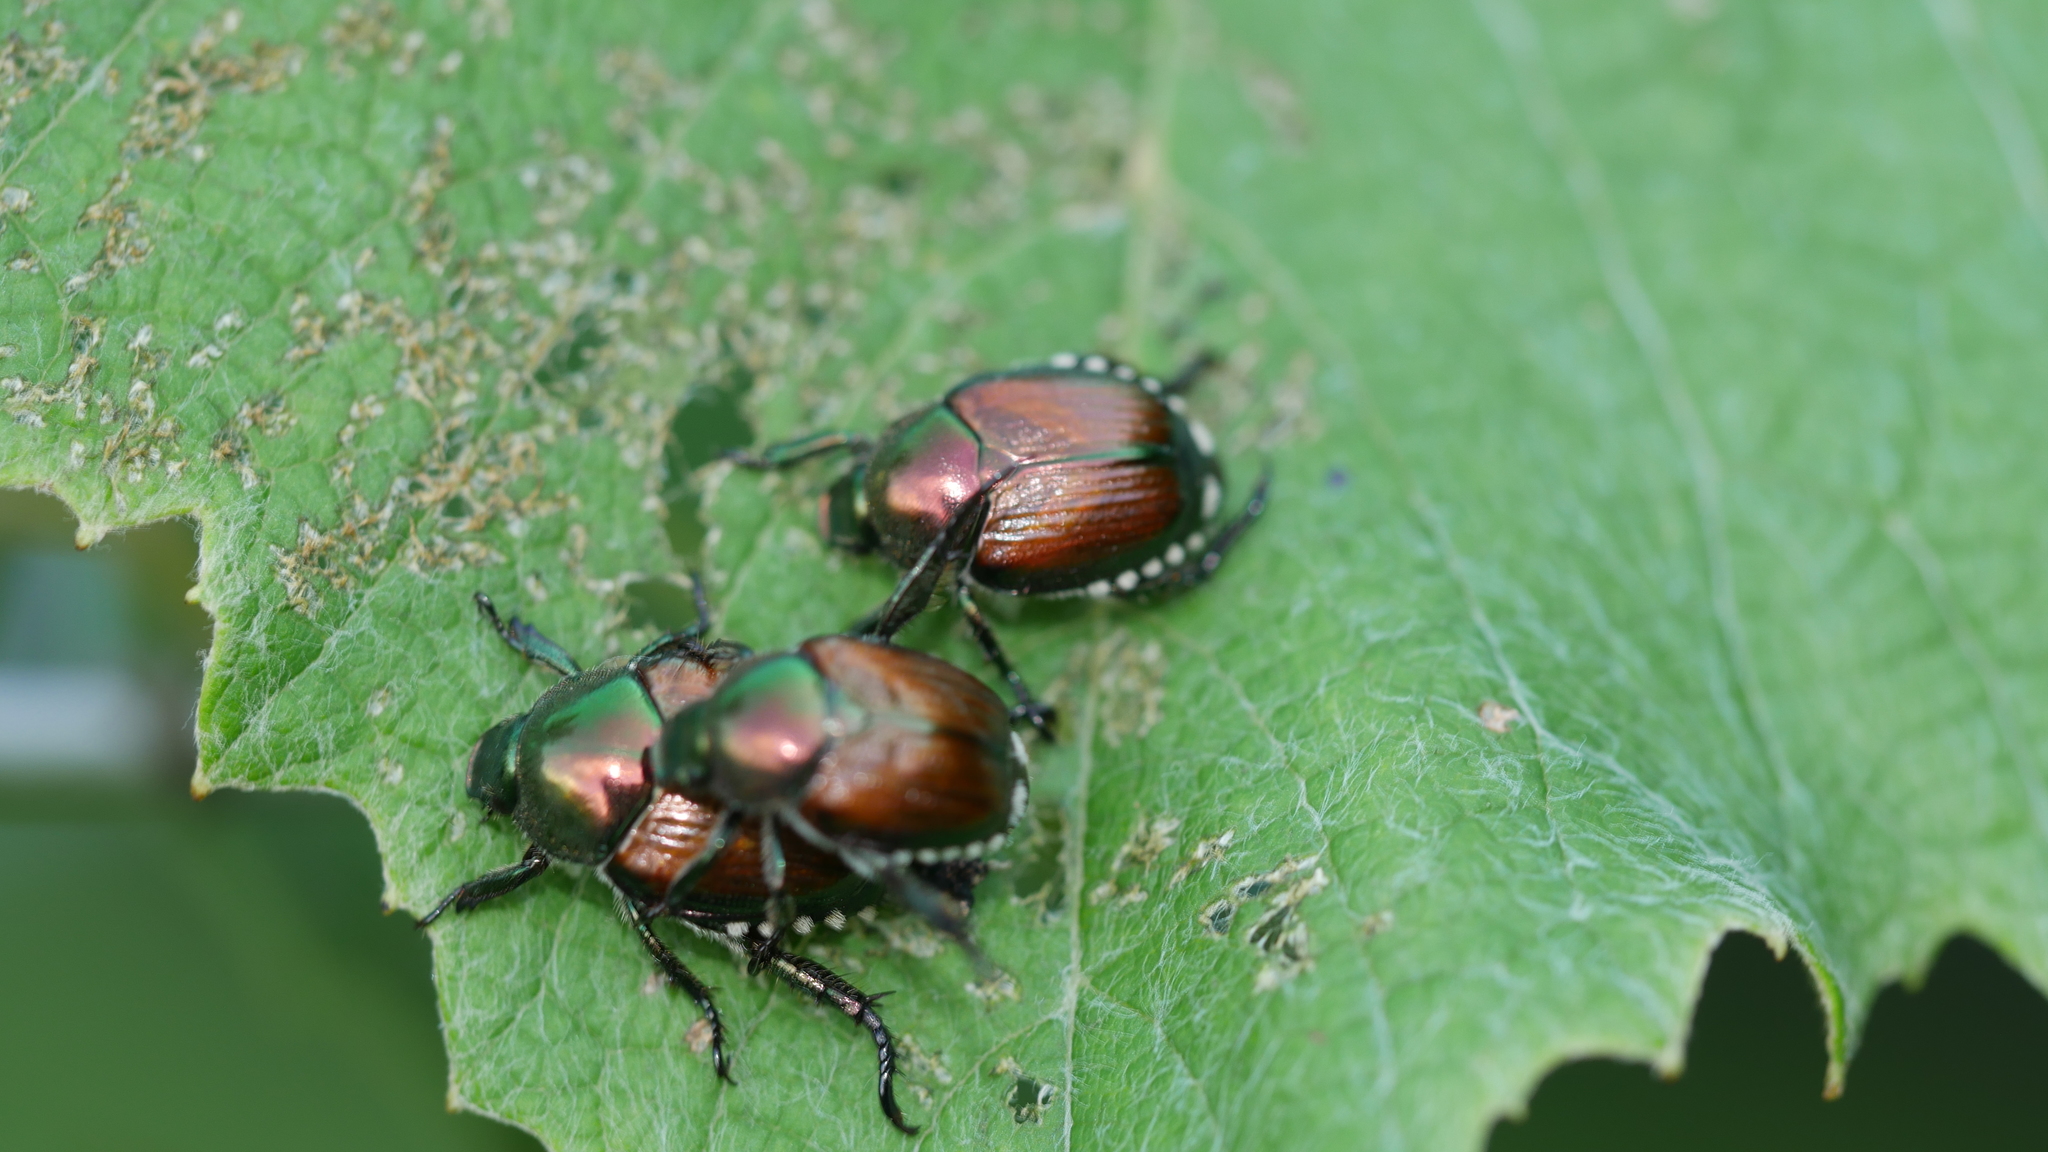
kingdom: Animalia
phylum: Arthropoda
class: Insecta
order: Coleoptera
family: Scarabaeidae
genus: Popillia
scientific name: Popillia japonica
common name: Japanese beetle
